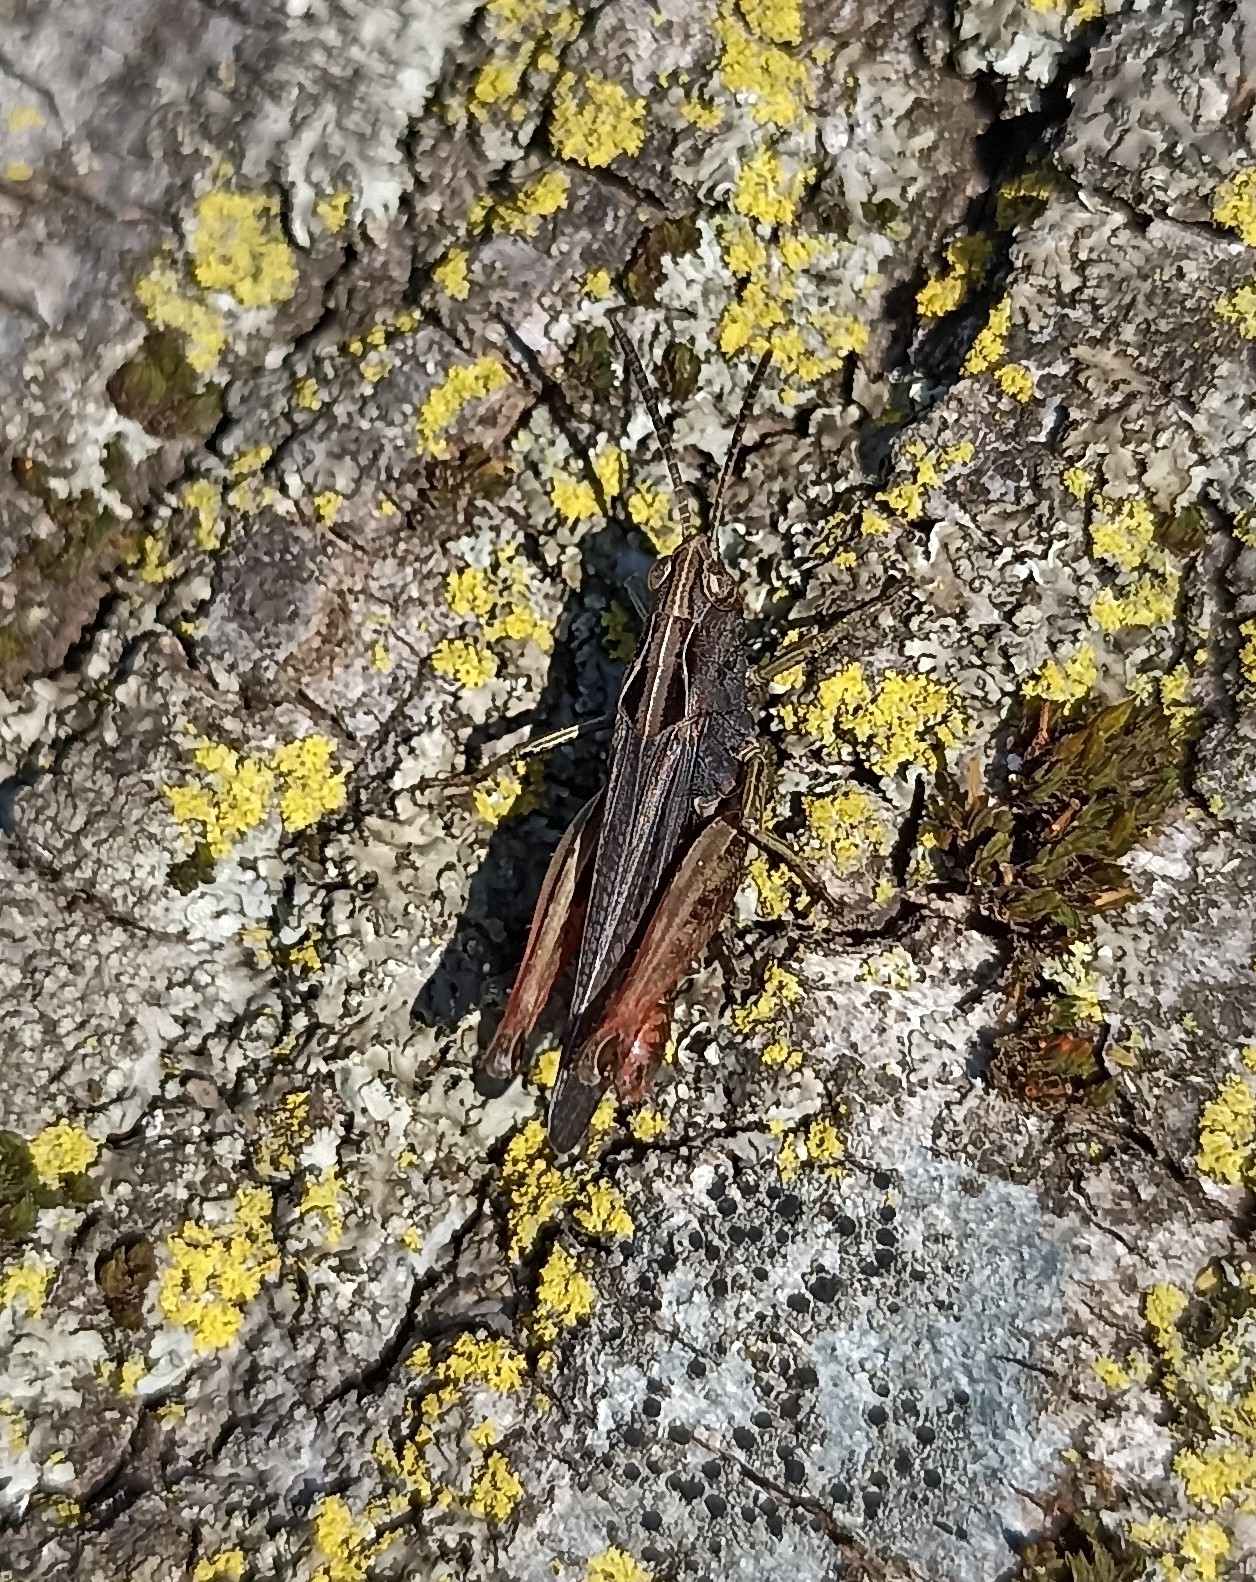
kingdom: Animalia
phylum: Arthropoda
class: Insecta
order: Orthoptera
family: Acrididae
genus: Omocestus
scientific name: Omocestus rufipes
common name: Woodland grasshopper
